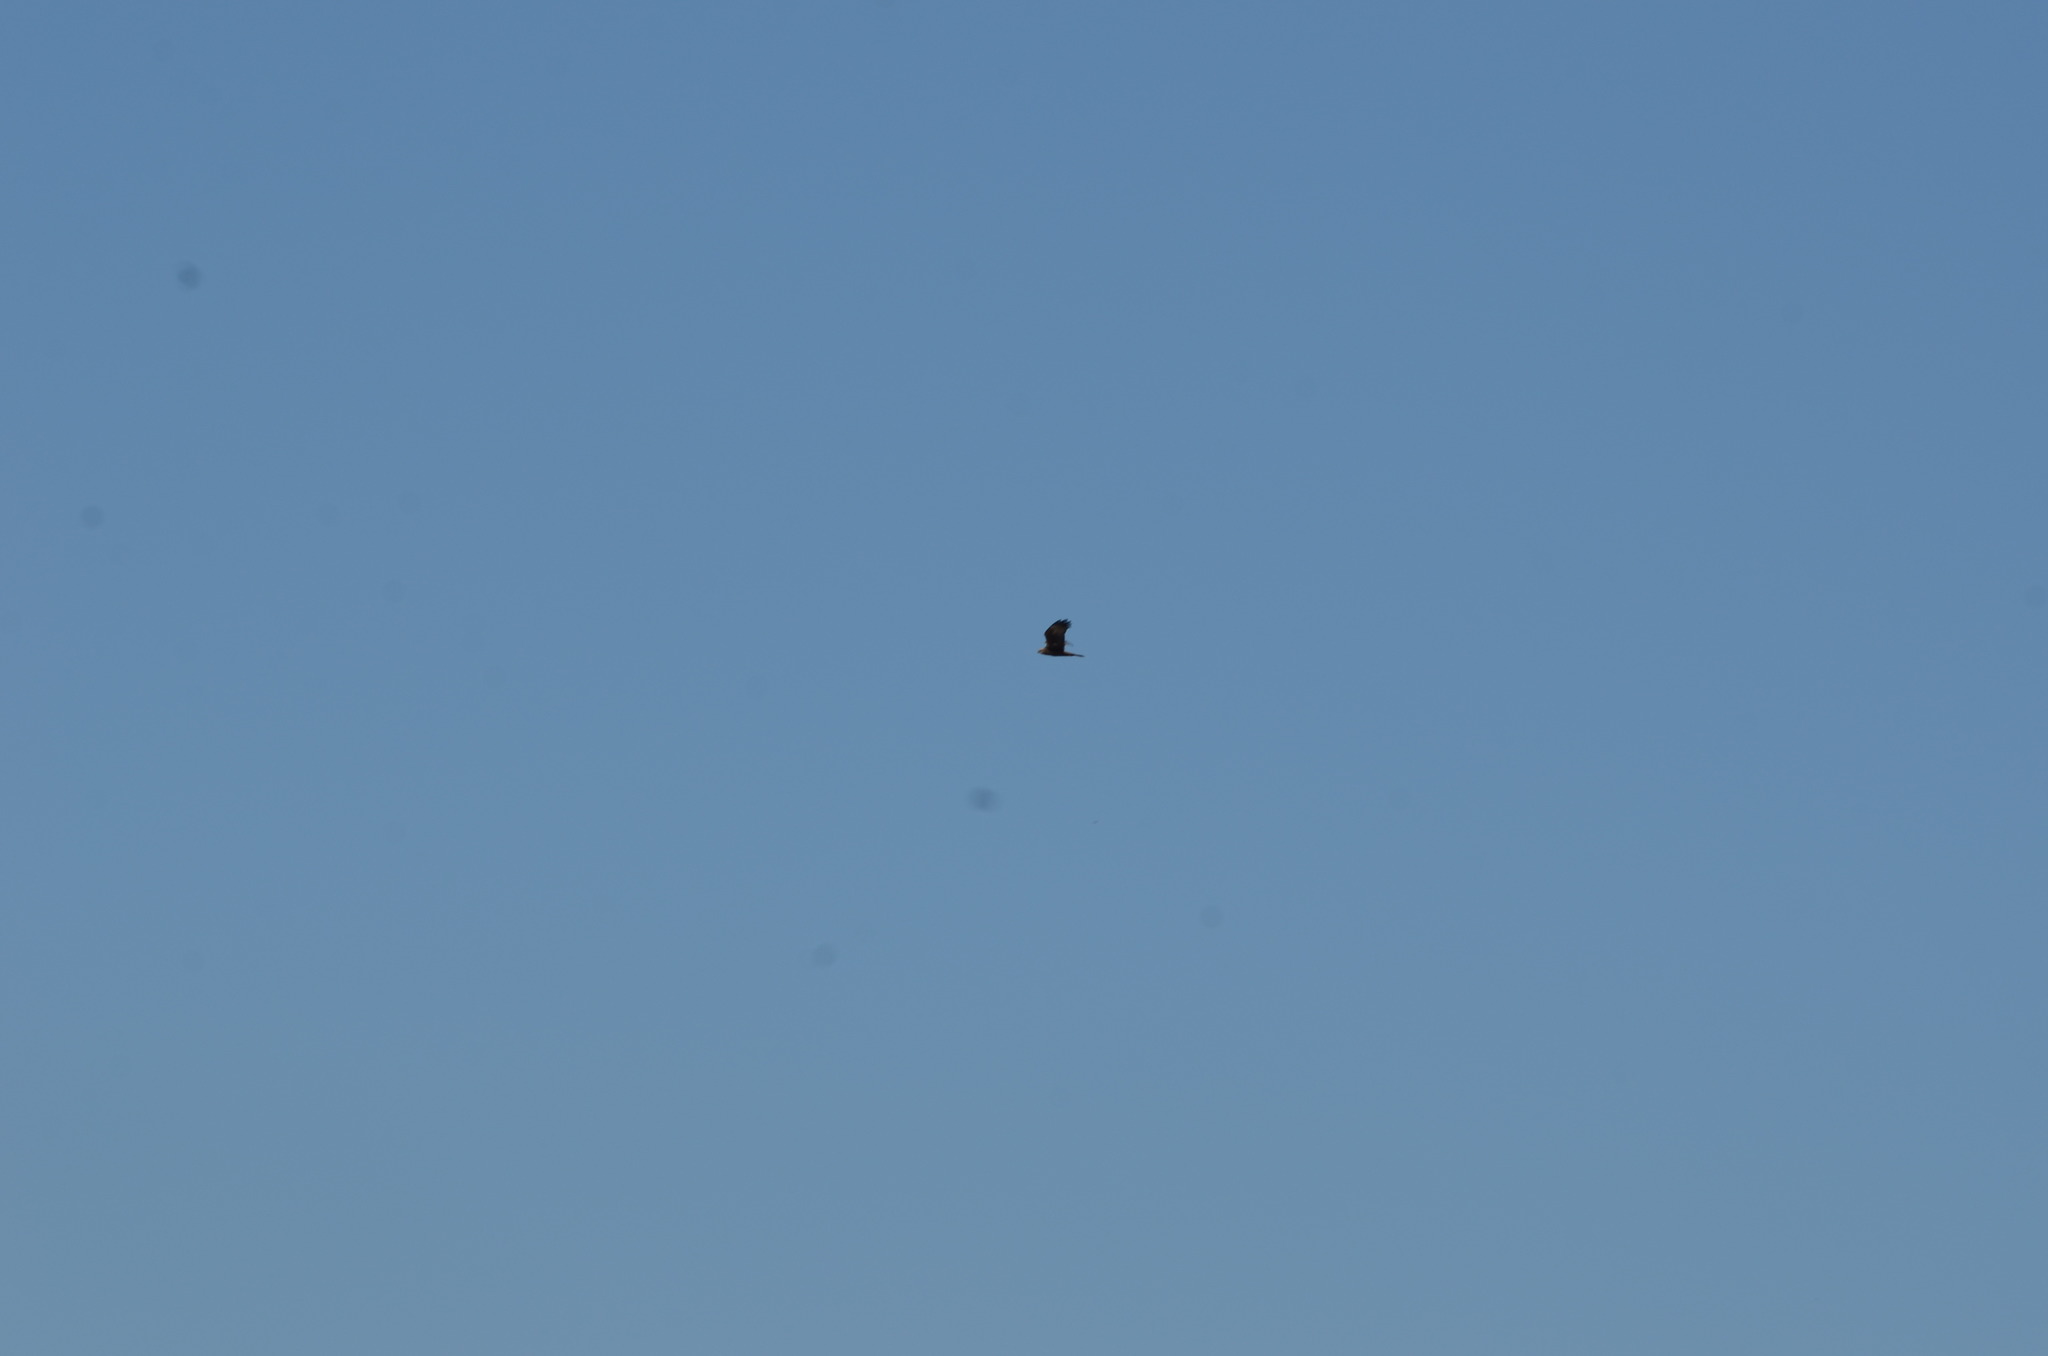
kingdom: Animalia
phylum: Chordata
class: Aves
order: Accipitriformes
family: Accipitridae
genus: Circus
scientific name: Circus aeruginosus
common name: Western marsh harrier
